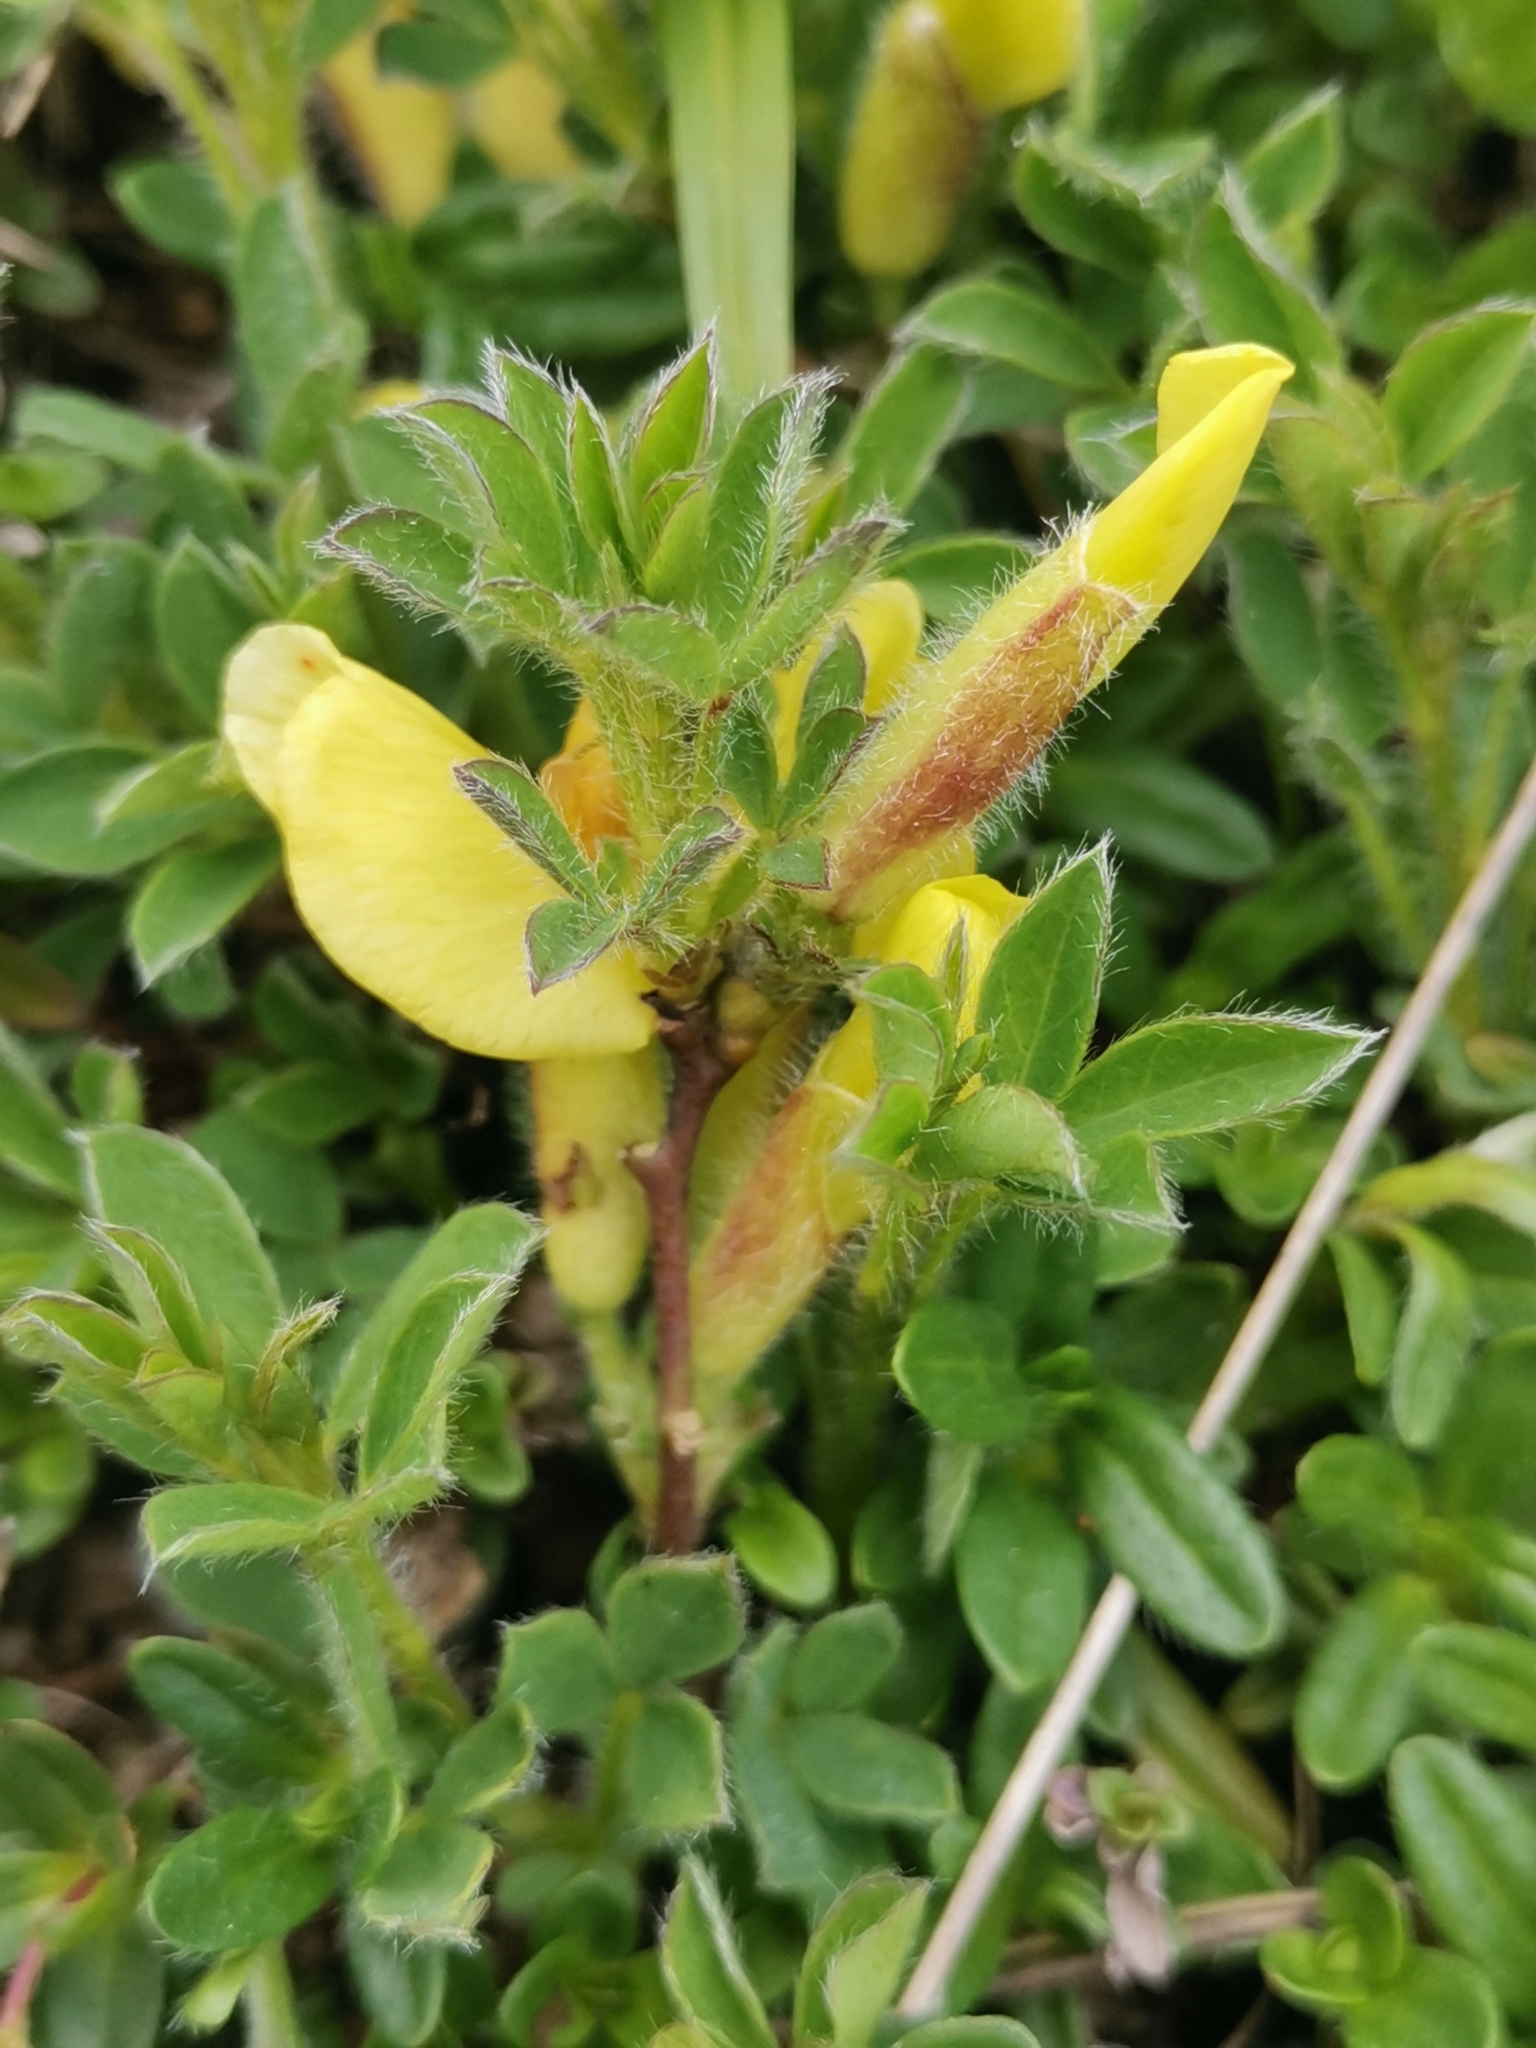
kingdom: Plantae
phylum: Tracheophyta
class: Magnoliopsida
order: Fabales
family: Fabaceae
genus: Chamaecytisus
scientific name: Chamaecytisus hirsutus
